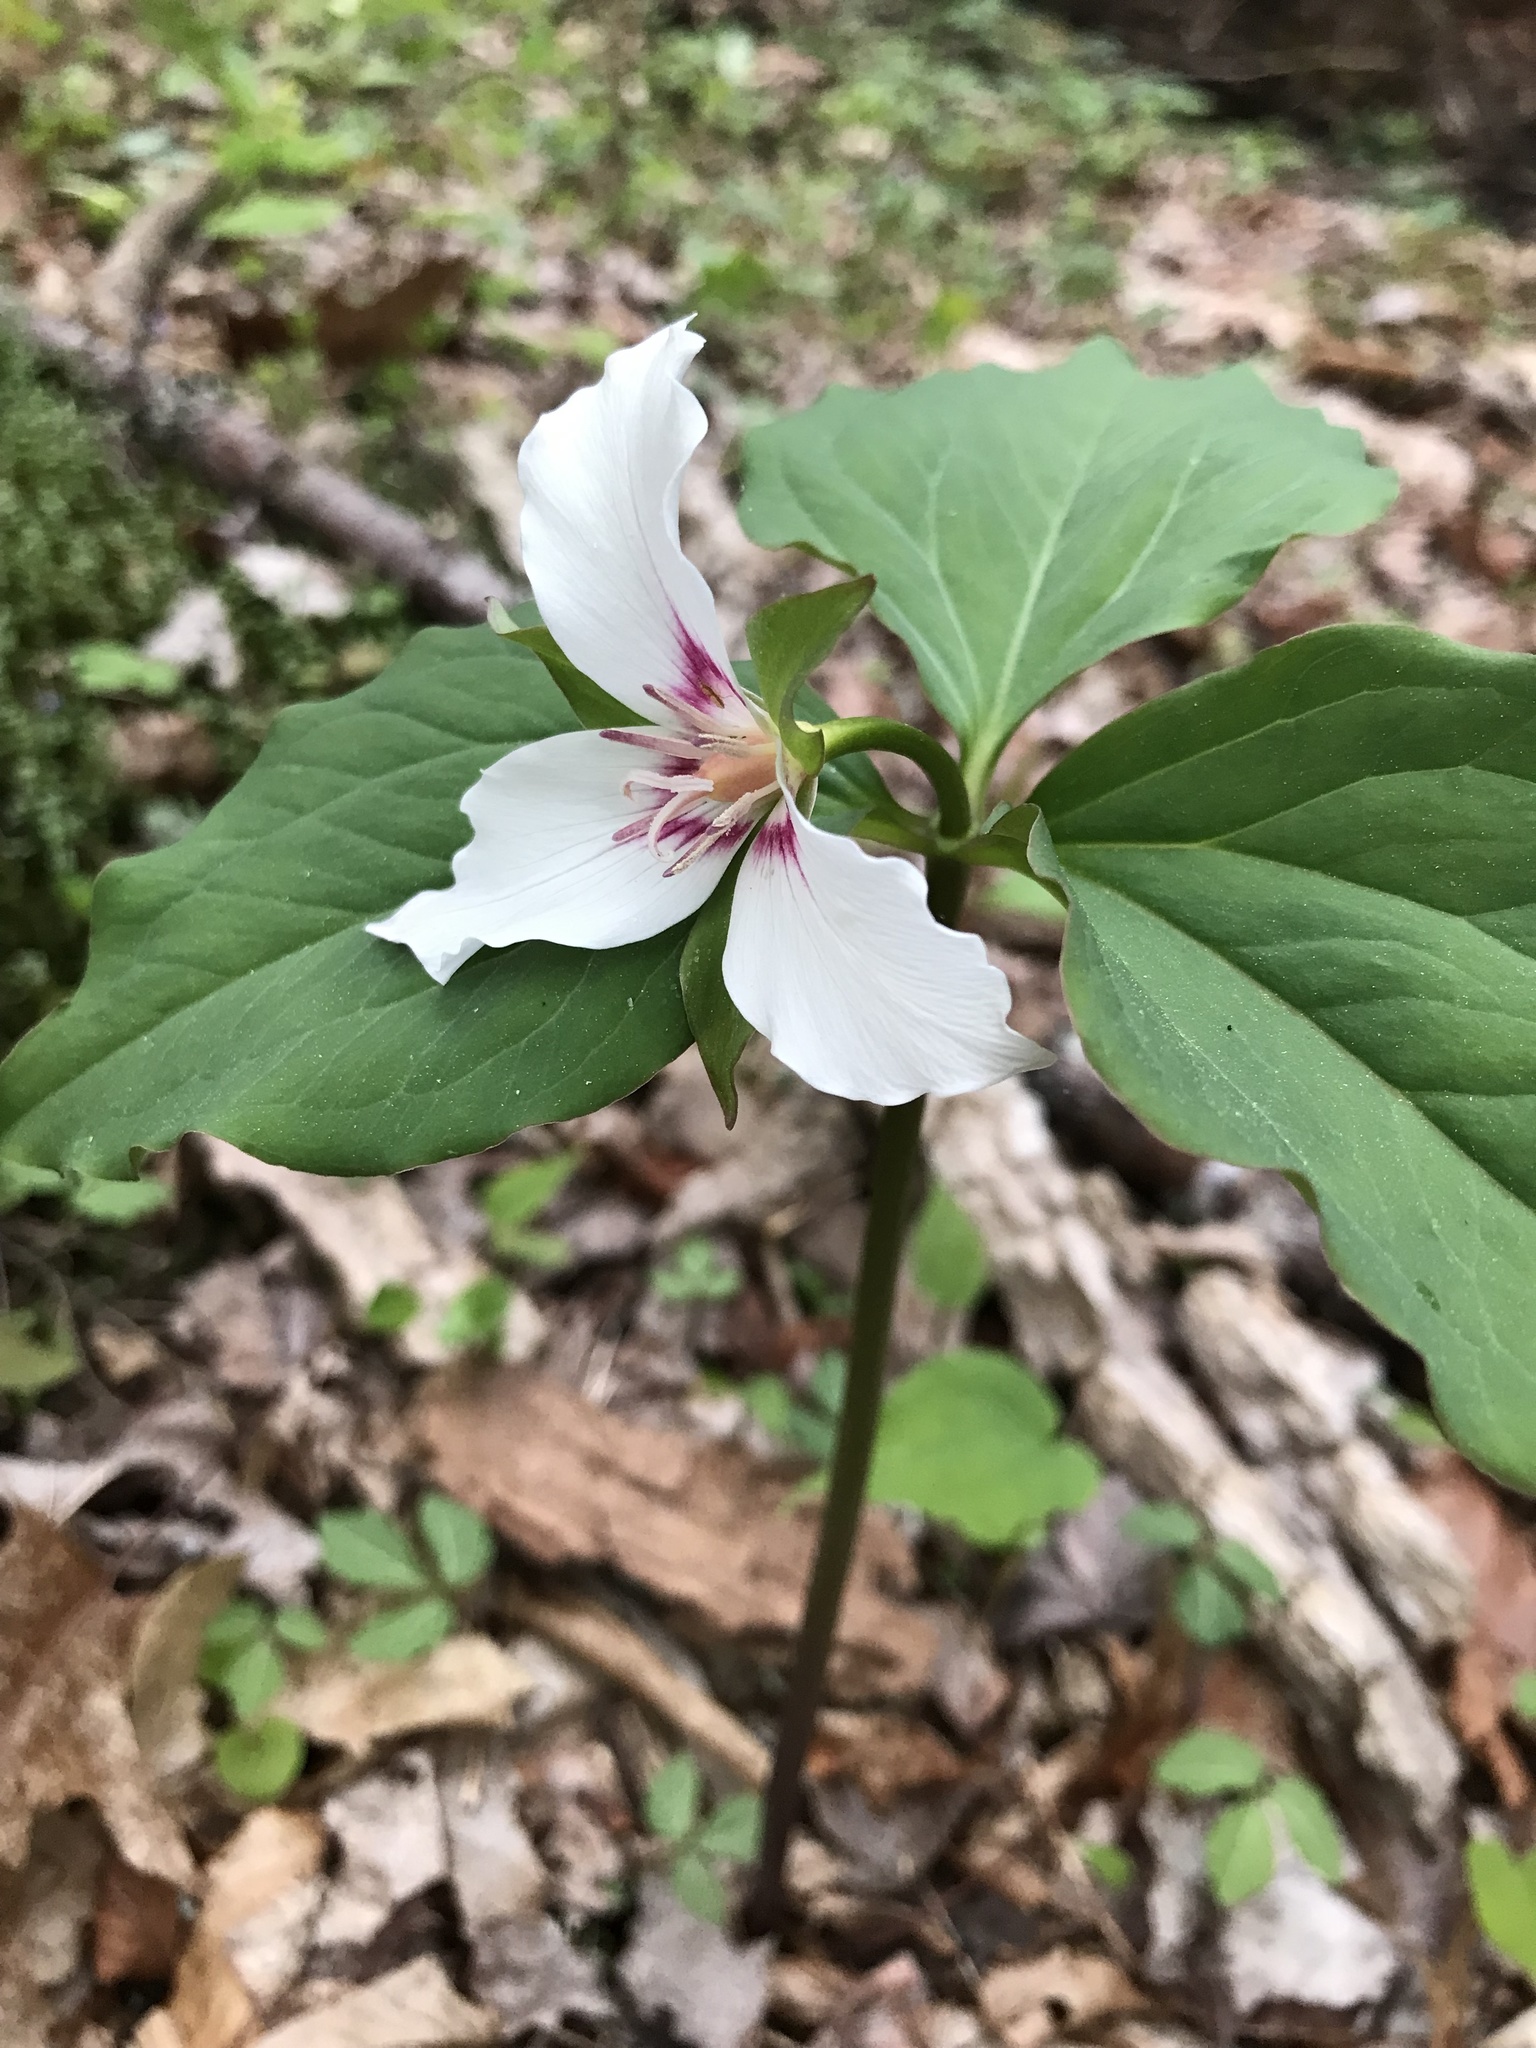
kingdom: Plantae
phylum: Tracheophyta
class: Liliopsida
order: Liliales
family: Melanthiaceae
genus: Trillium
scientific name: Trillium undulatum
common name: Paint trillium
